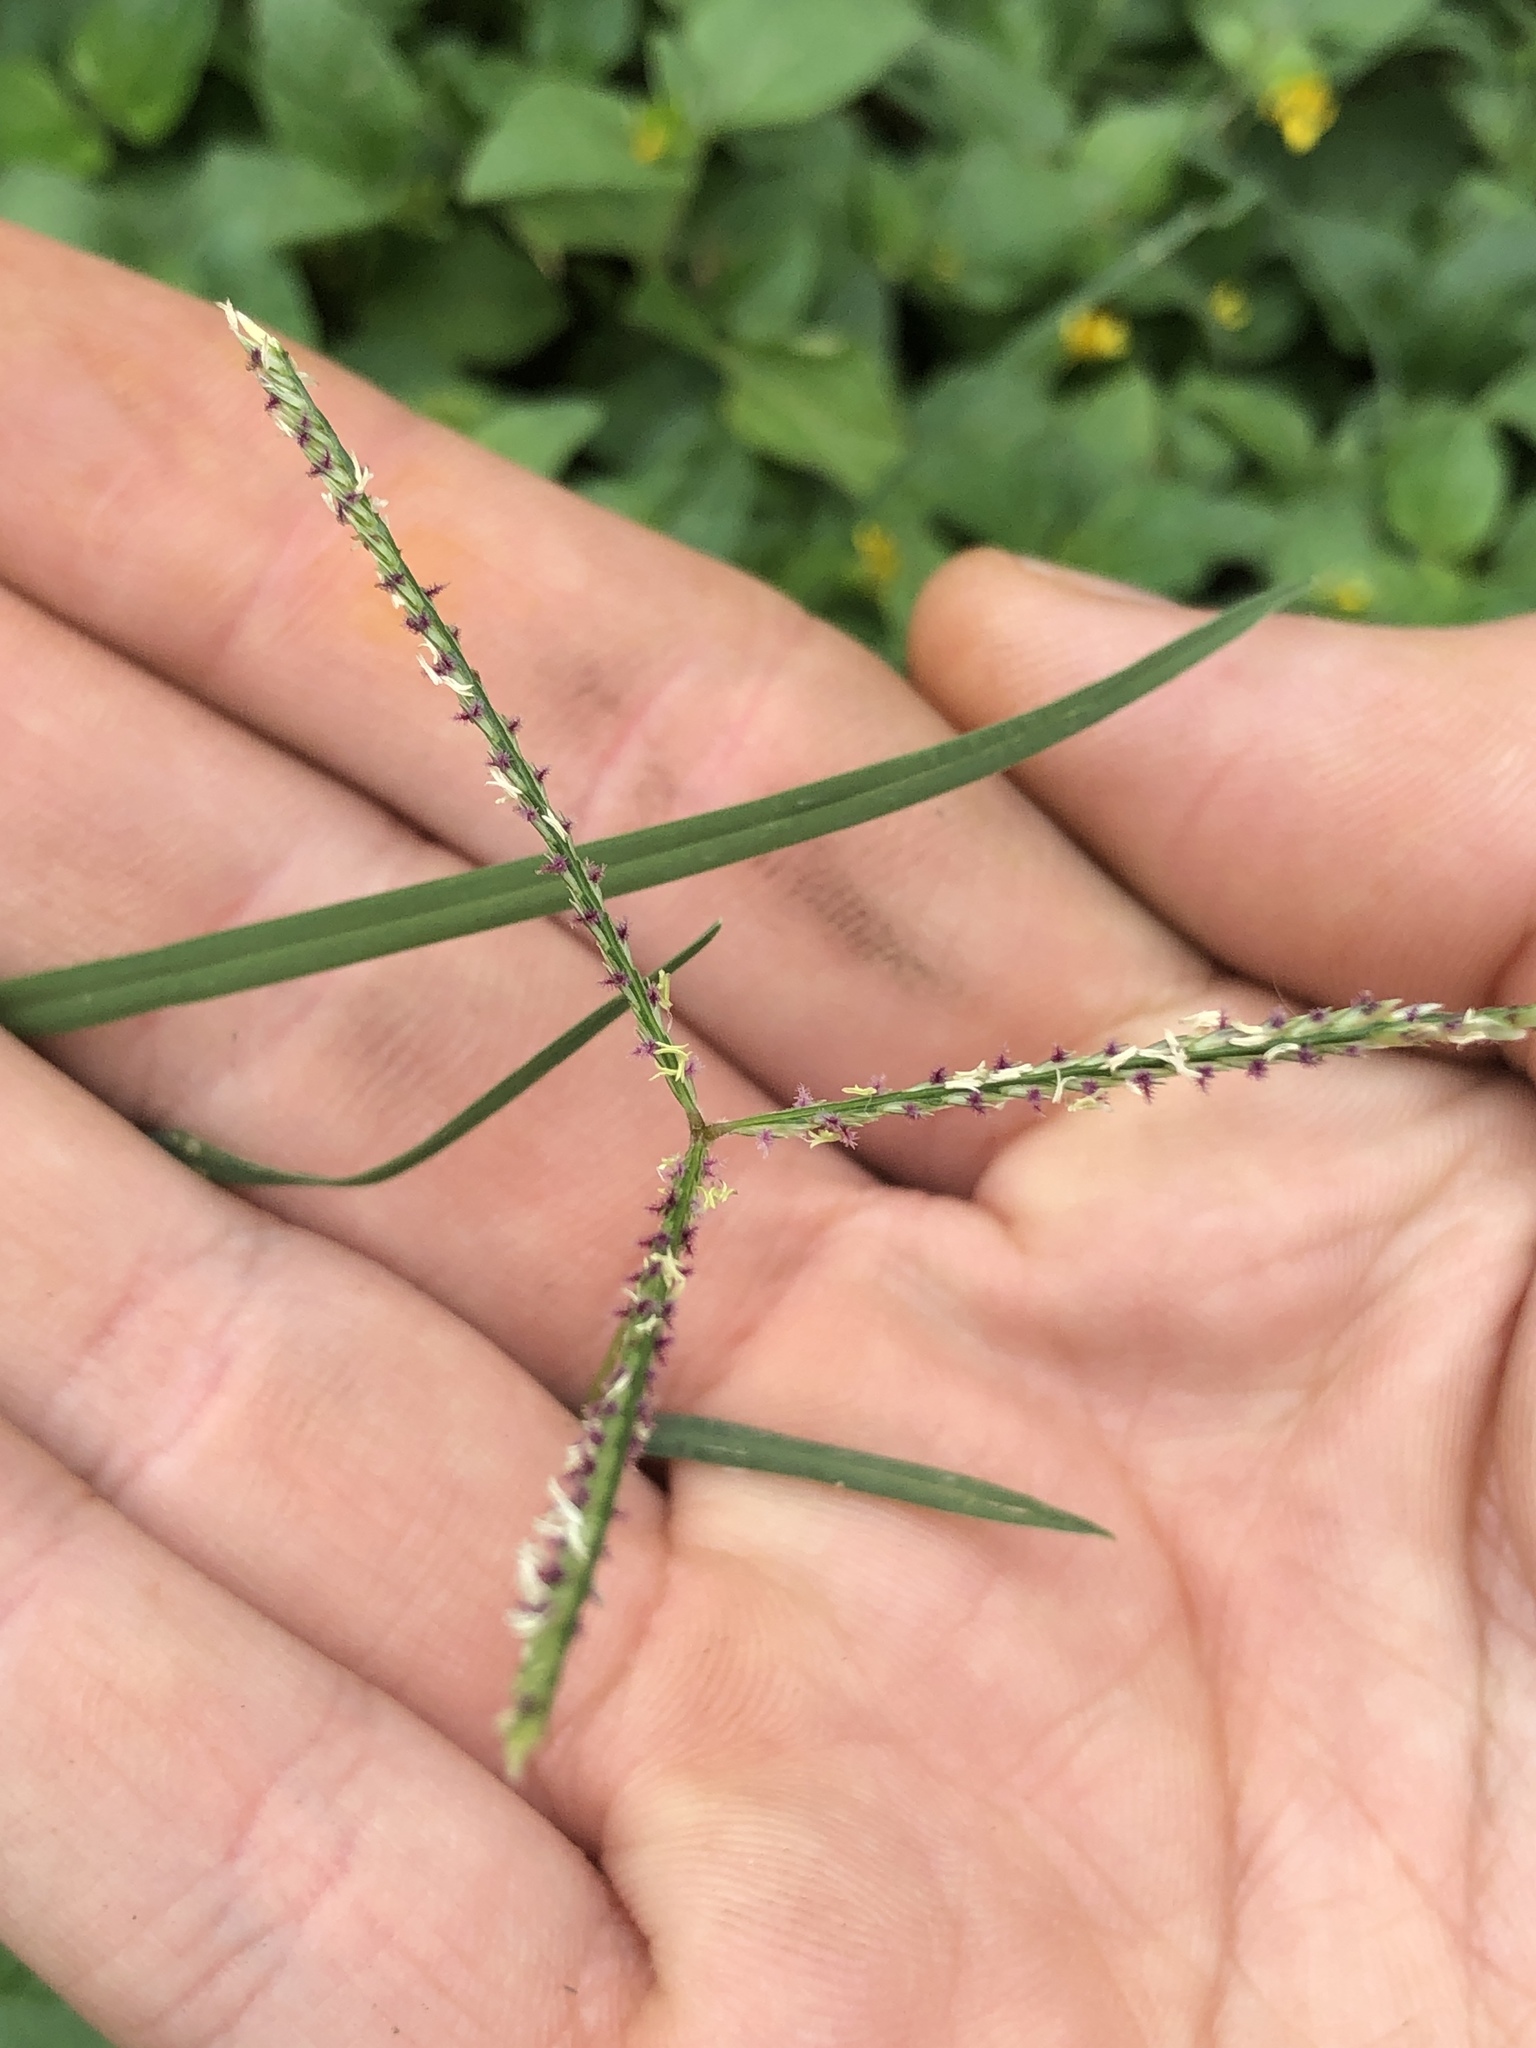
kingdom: Plantae
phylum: Tracheophyta
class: Liliopsida
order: Poales
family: Poaceae
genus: Cynodon
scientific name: Cynodon dactylon
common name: Bermuda grass
